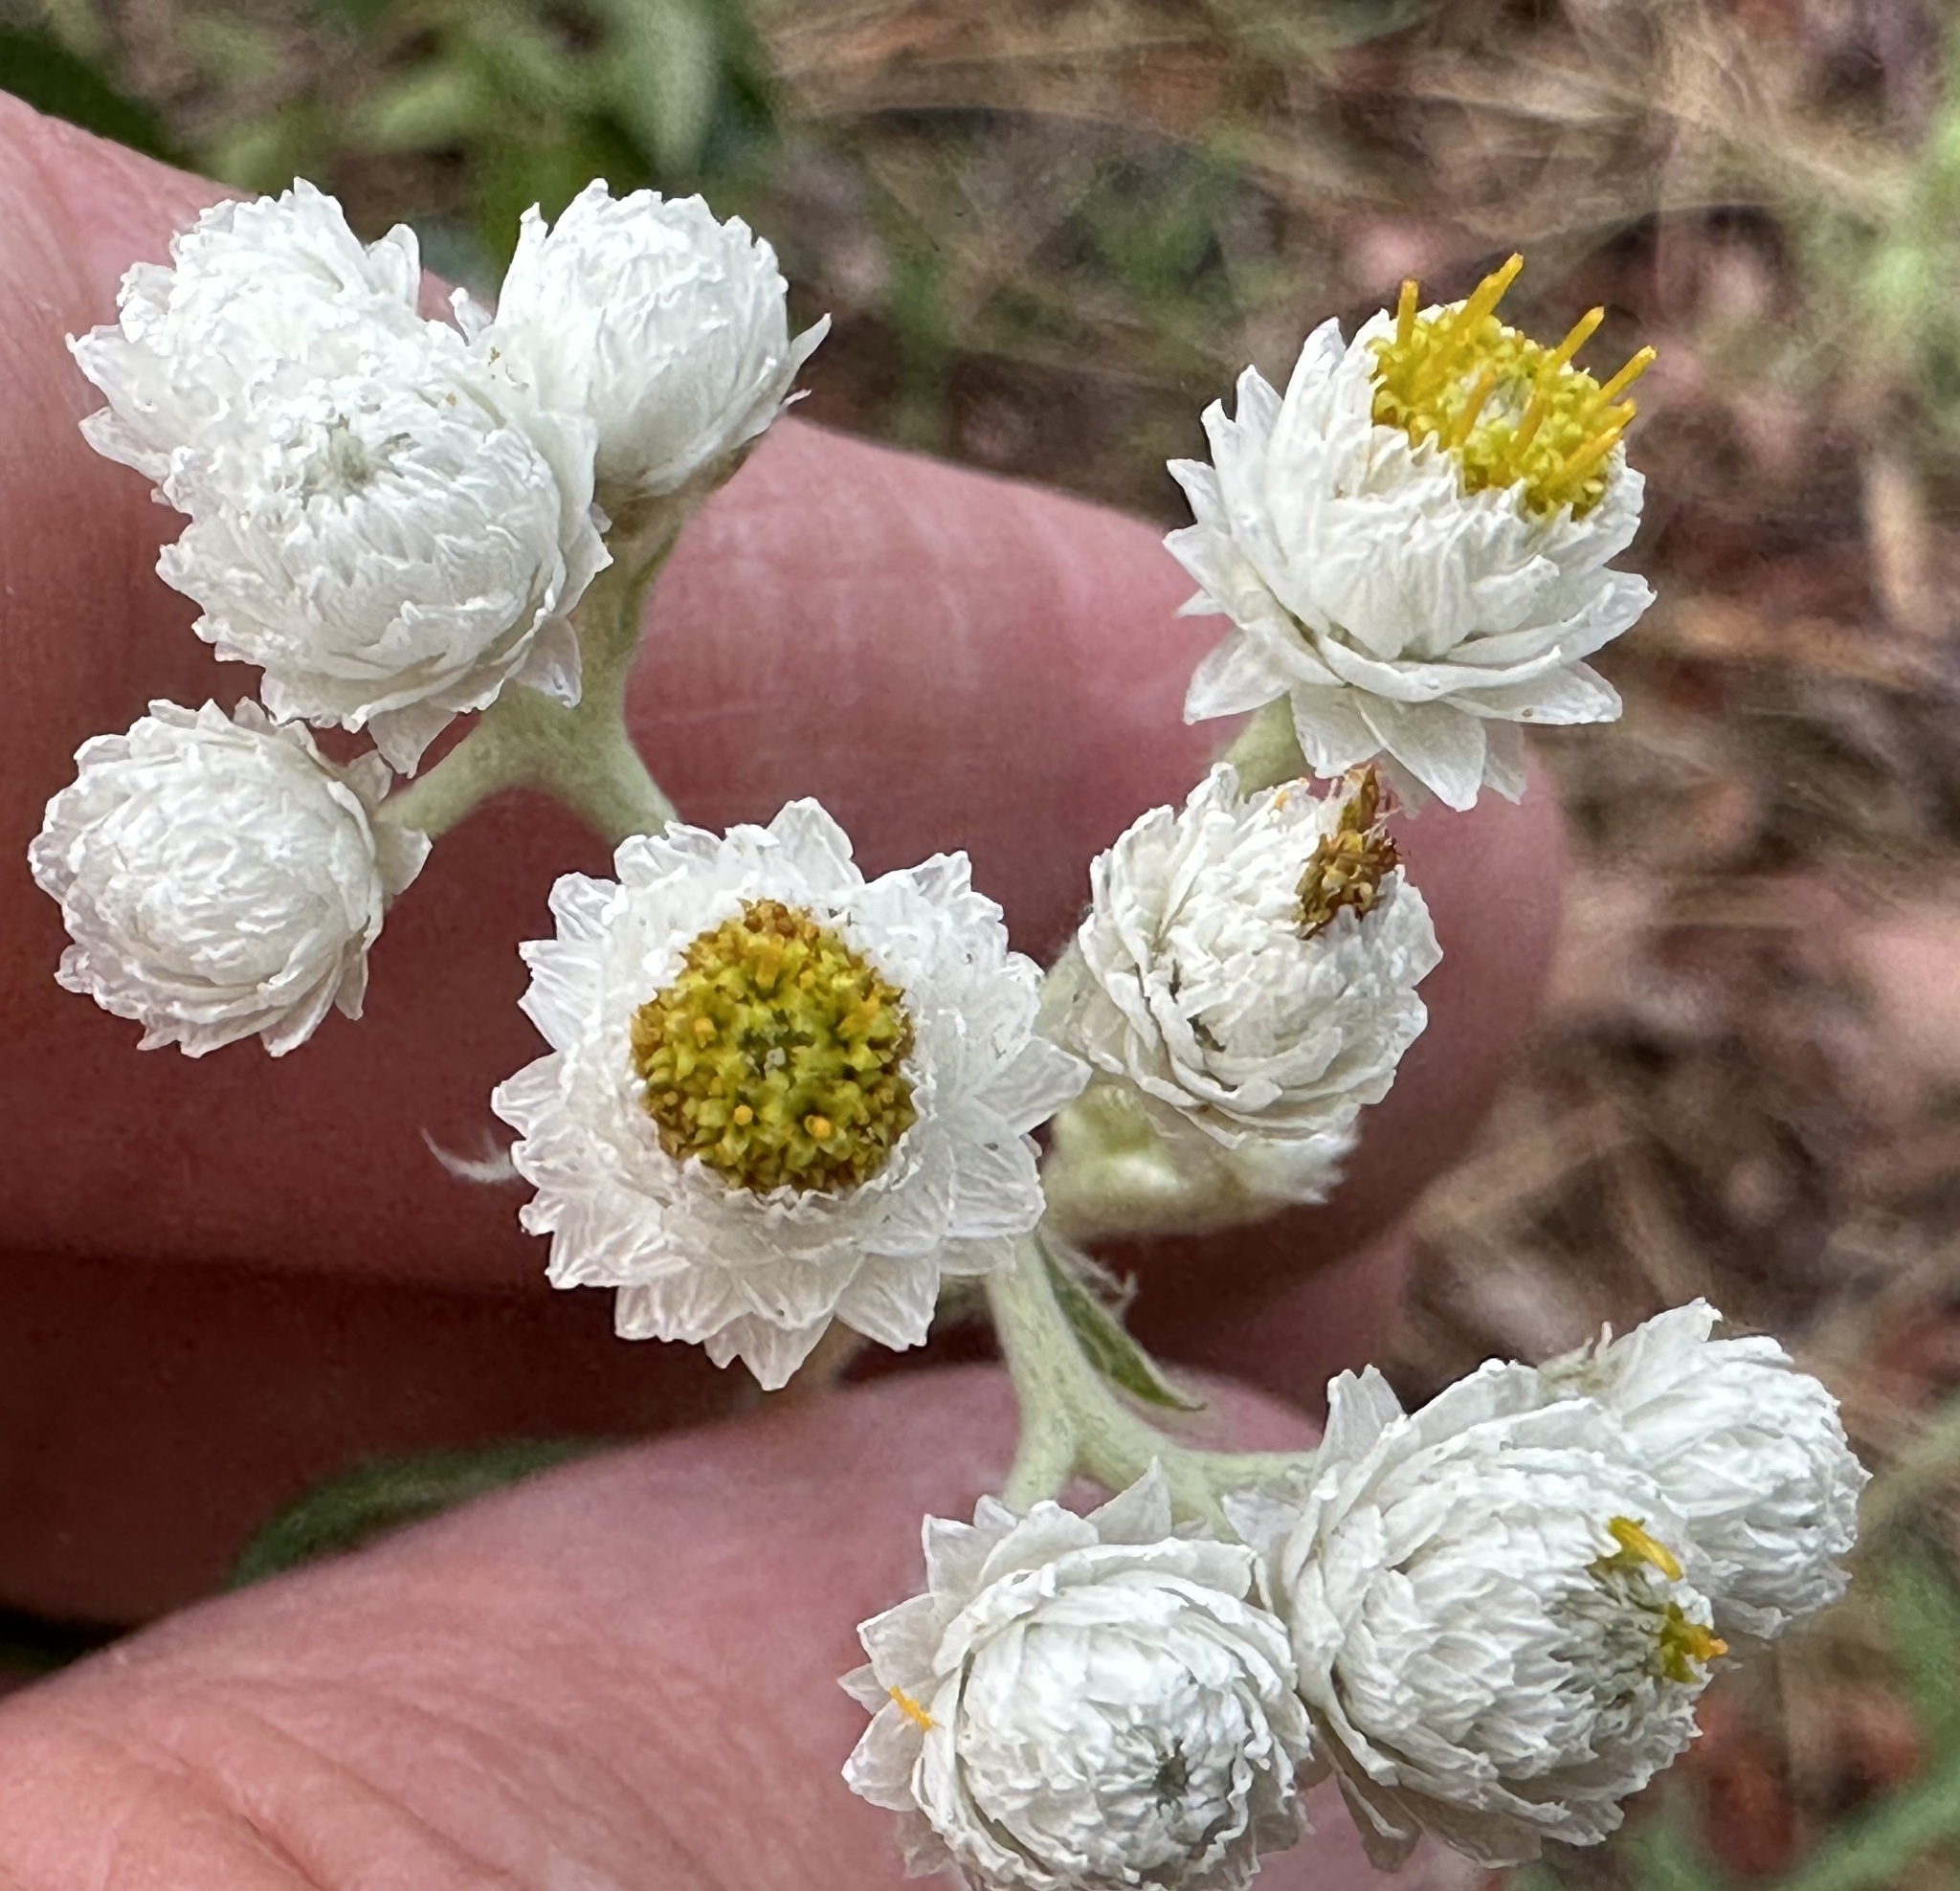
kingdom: Plantae
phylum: Tracheophyta
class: Magnoliopsida
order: Asterales
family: Asteraceae
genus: Anaphalis
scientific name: Anaphalis margaritacea
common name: Pearly everlasting
